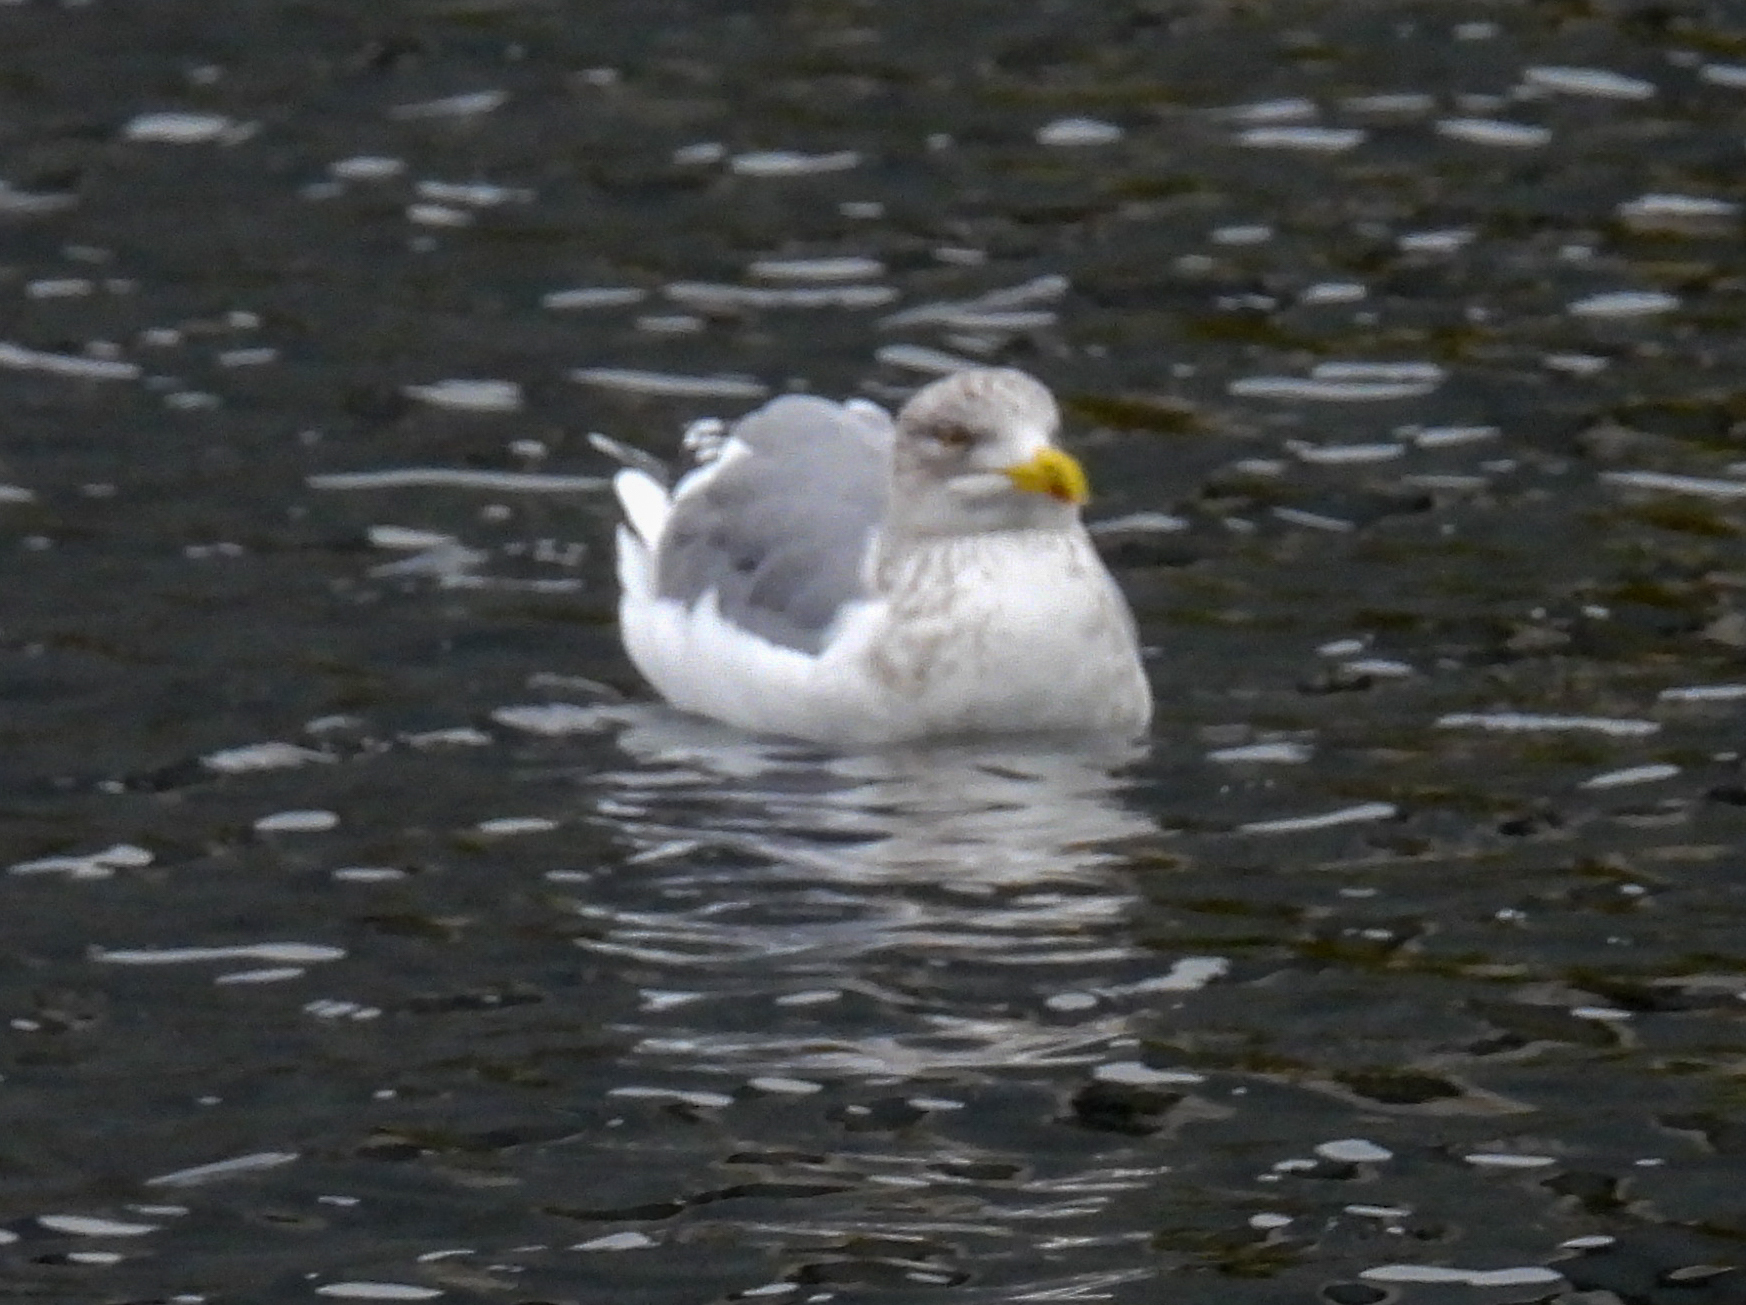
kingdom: Animalia
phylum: Chordata
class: Aves
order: Charadriiformes
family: Laridae
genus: Larus
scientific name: Larus argentatus
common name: Herring gull
